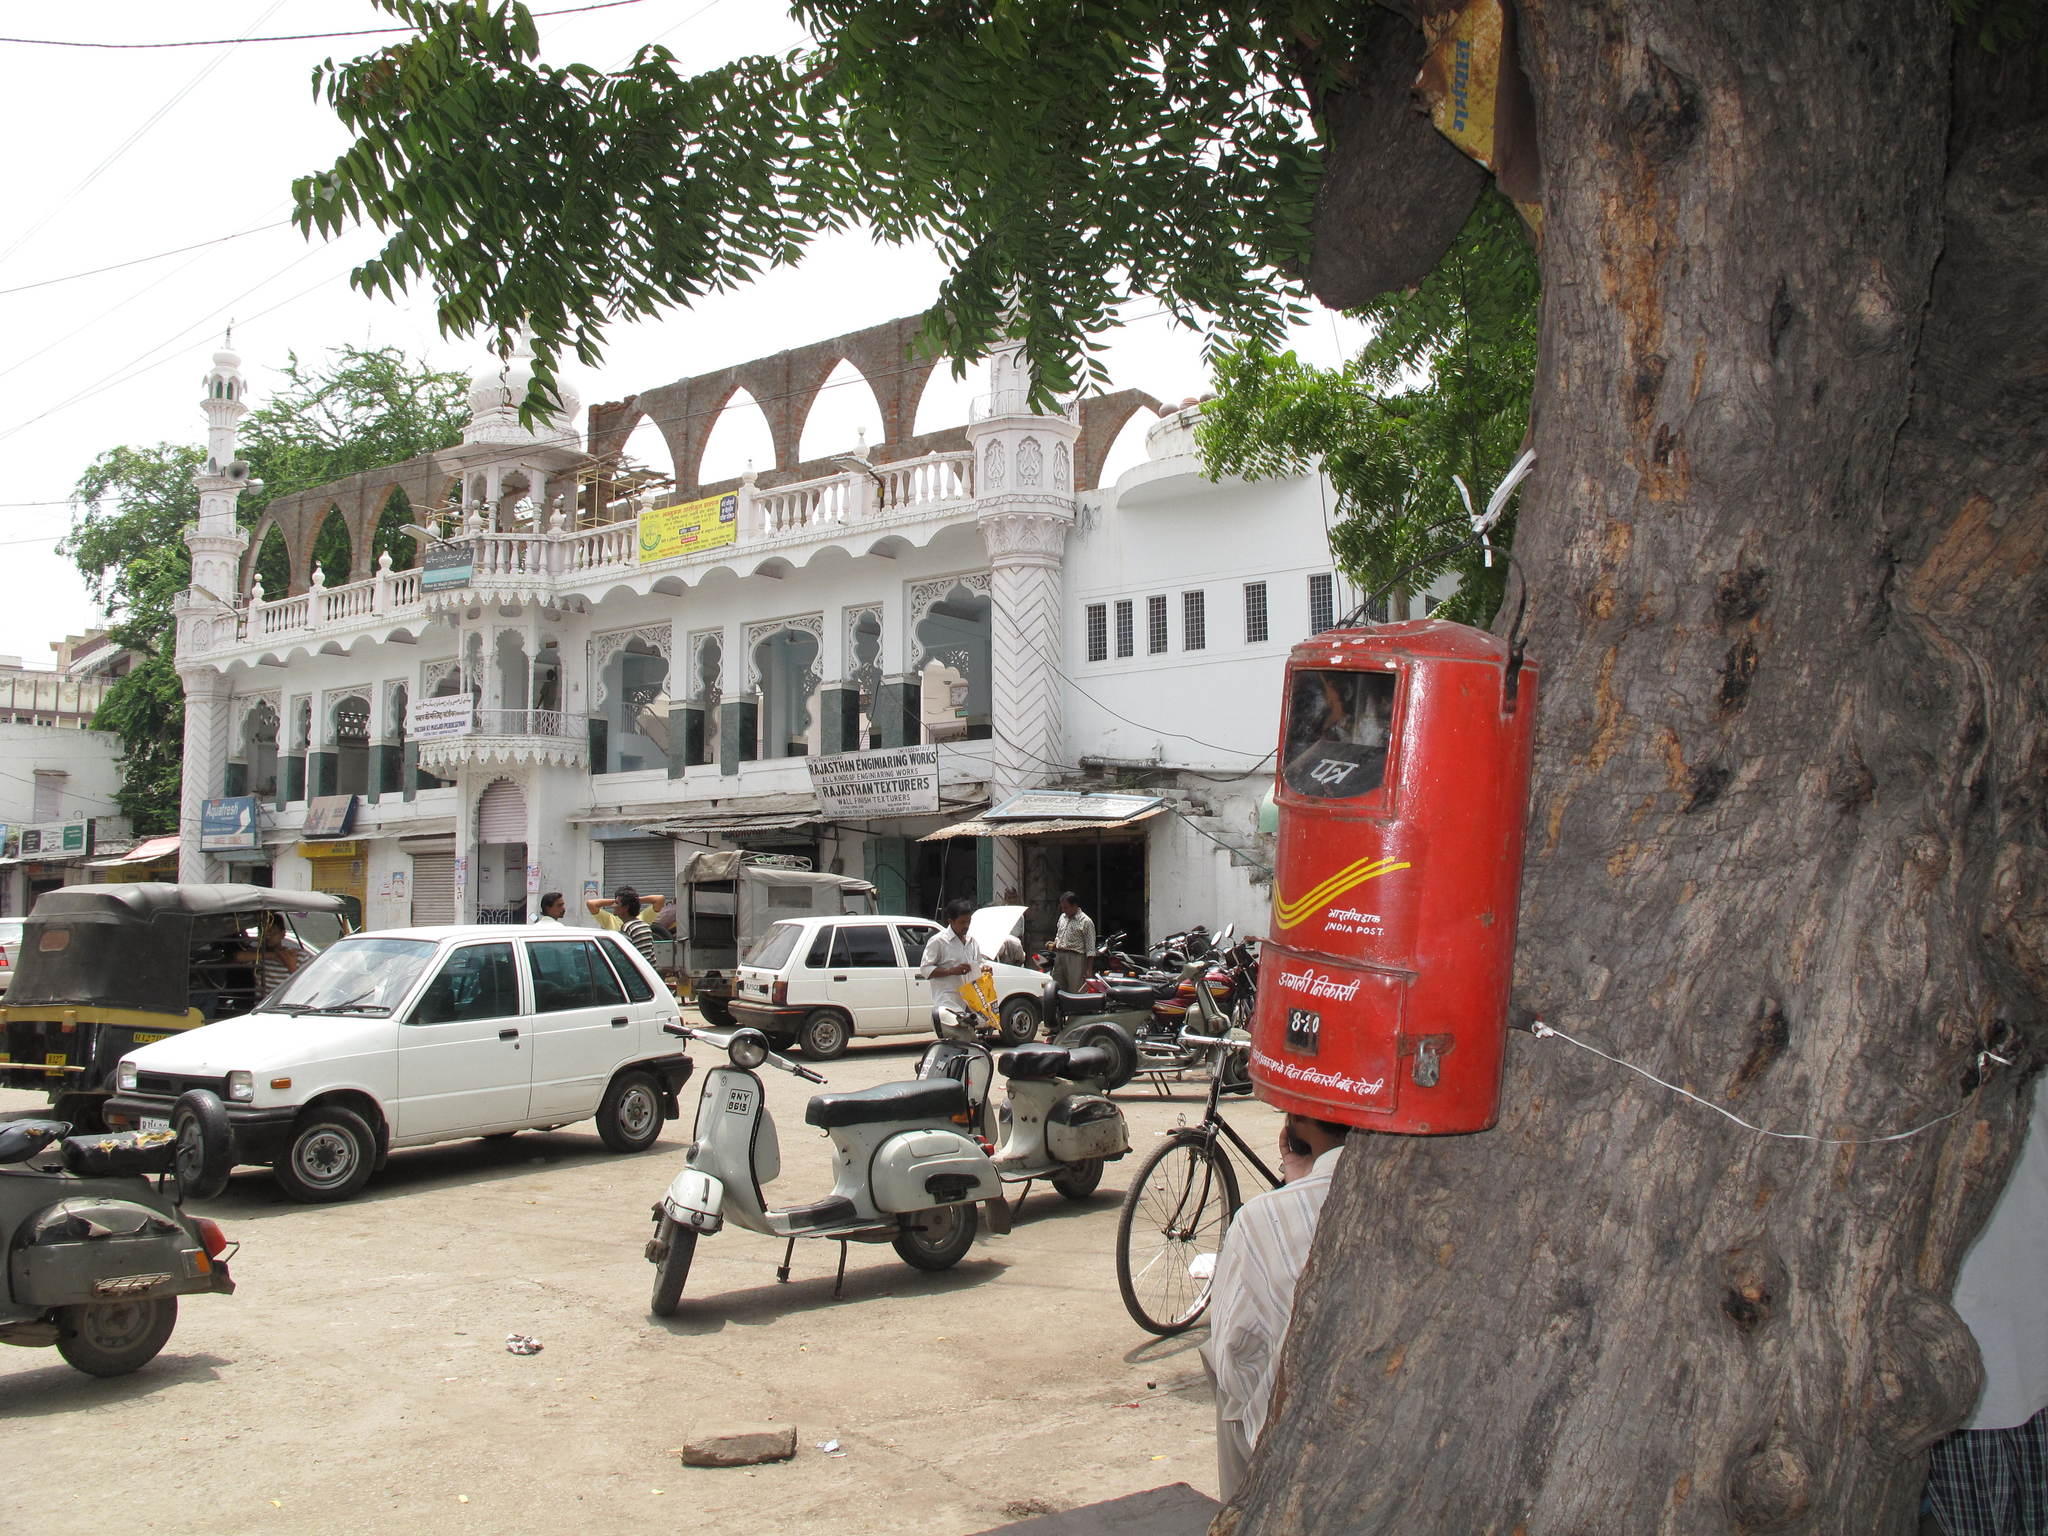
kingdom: Plantae
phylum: Tracheophyta
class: Magnoliopsida
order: Sapindales
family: Meliaceae
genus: Azadirachta
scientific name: Azadirachta indica
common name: Neem
